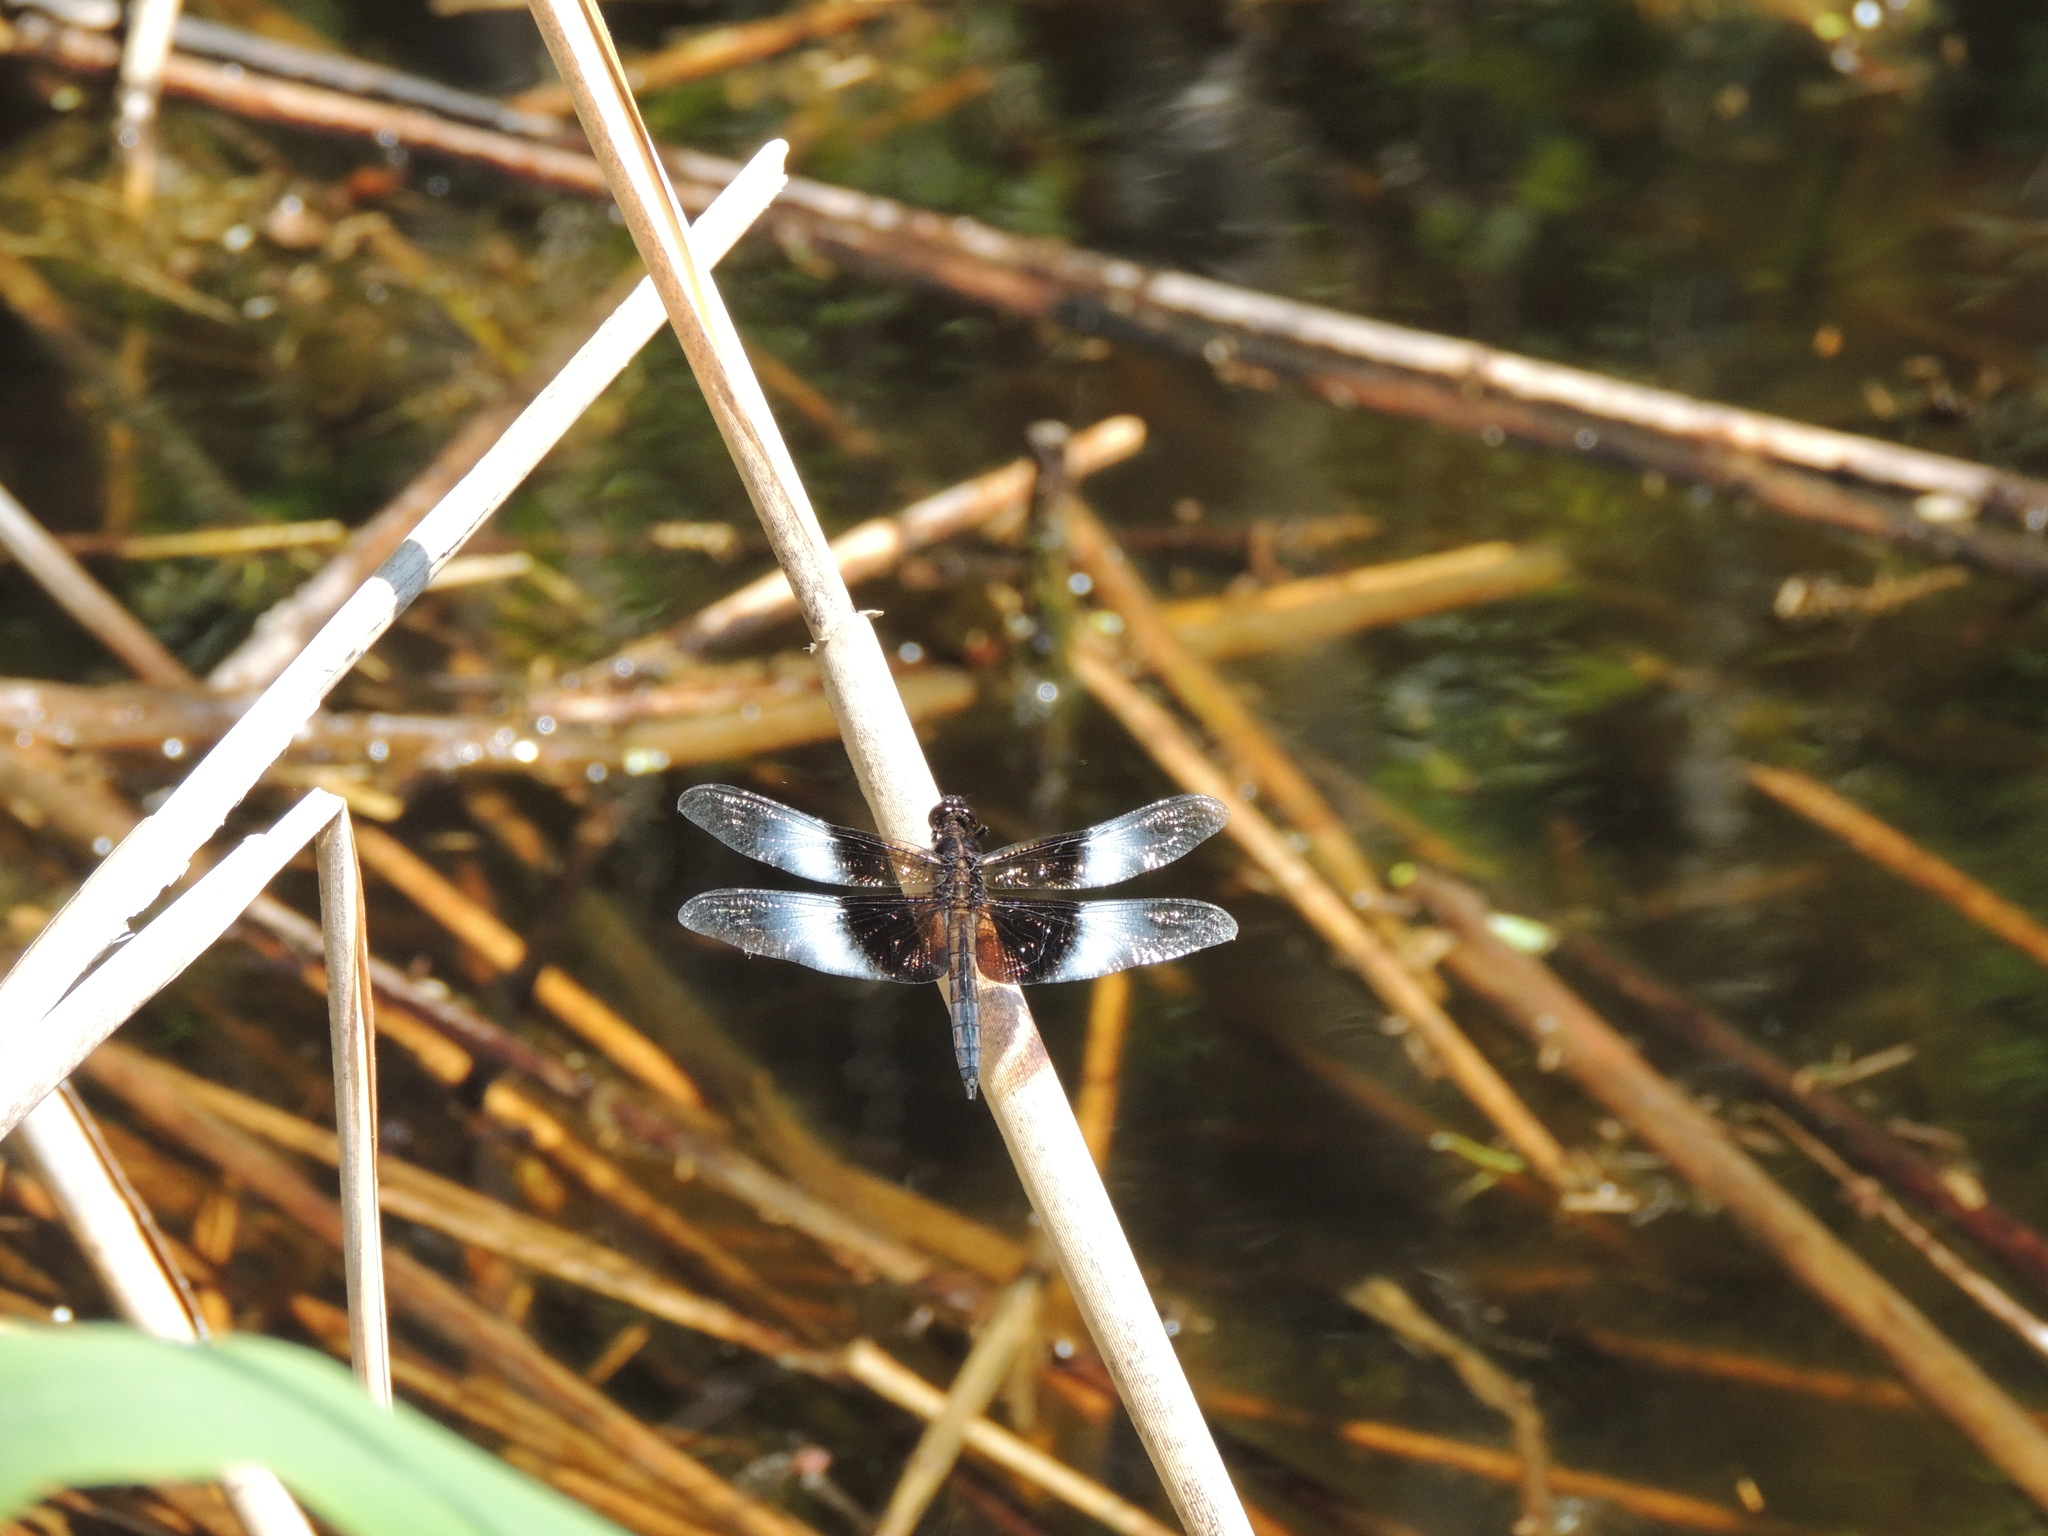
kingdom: Animalia
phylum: Arthropoda
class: Insecta
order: Odonata
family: Libellulidae
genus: Libellula
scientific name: Libellula luctuosa
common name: Widow skimmer
